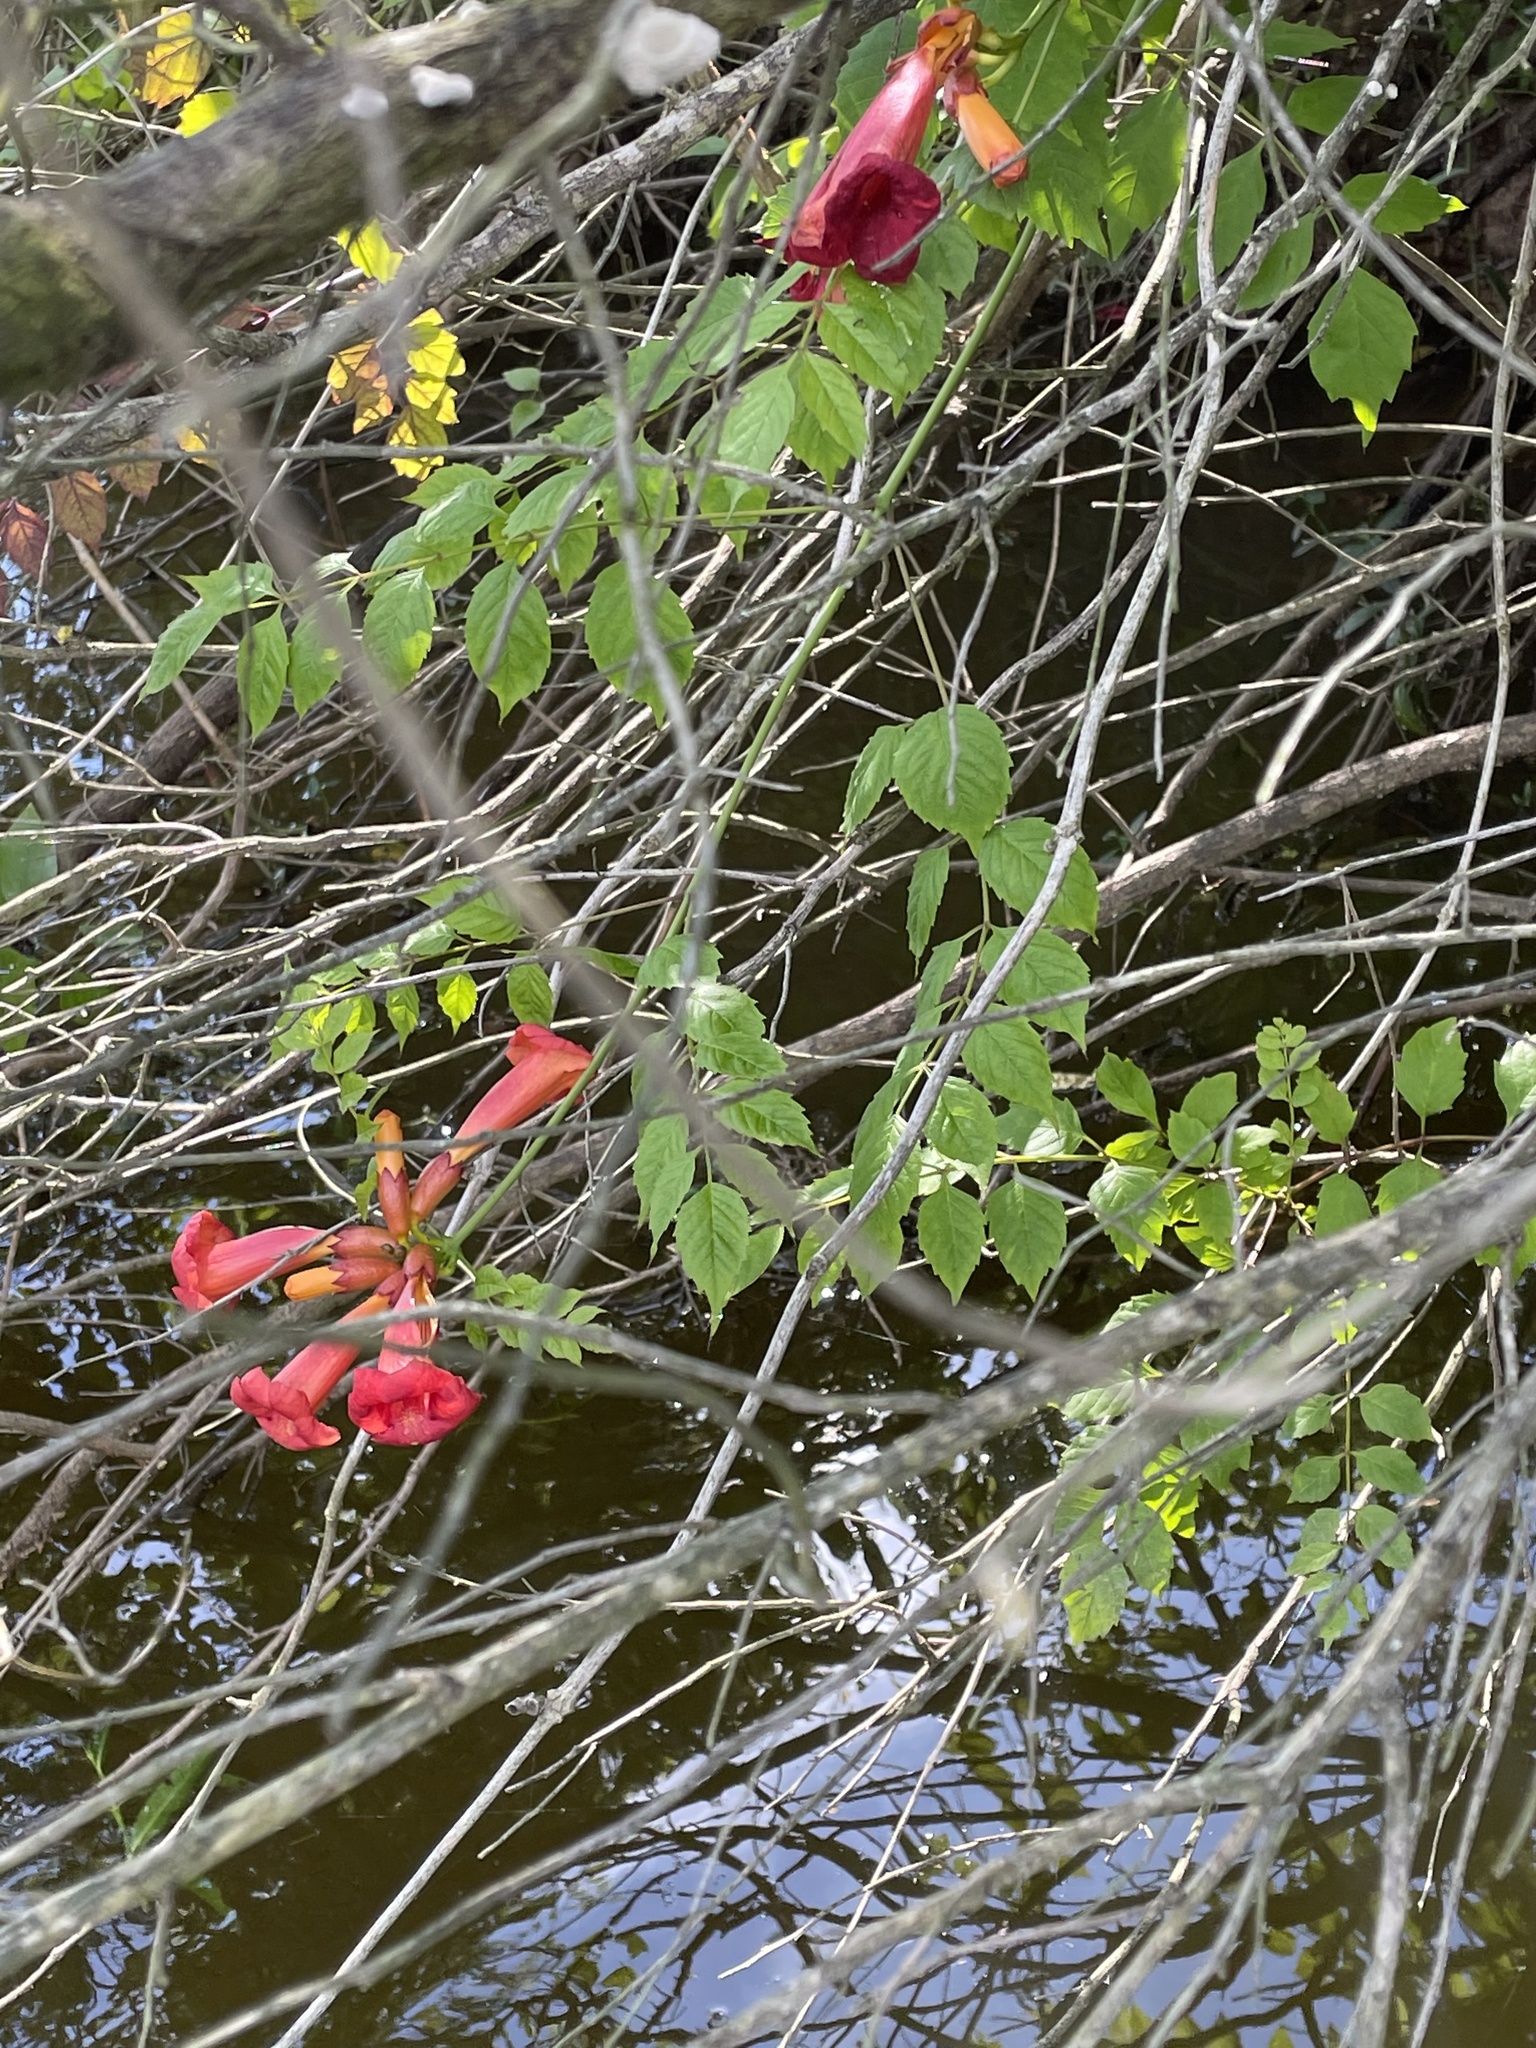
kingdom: Plantae
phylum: Tracheophyta
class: Magnoliopsida
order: Lamiales
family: Bignoniaceae
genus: Campsis
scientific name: Campsis radicans
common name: Trumpet-creeper
